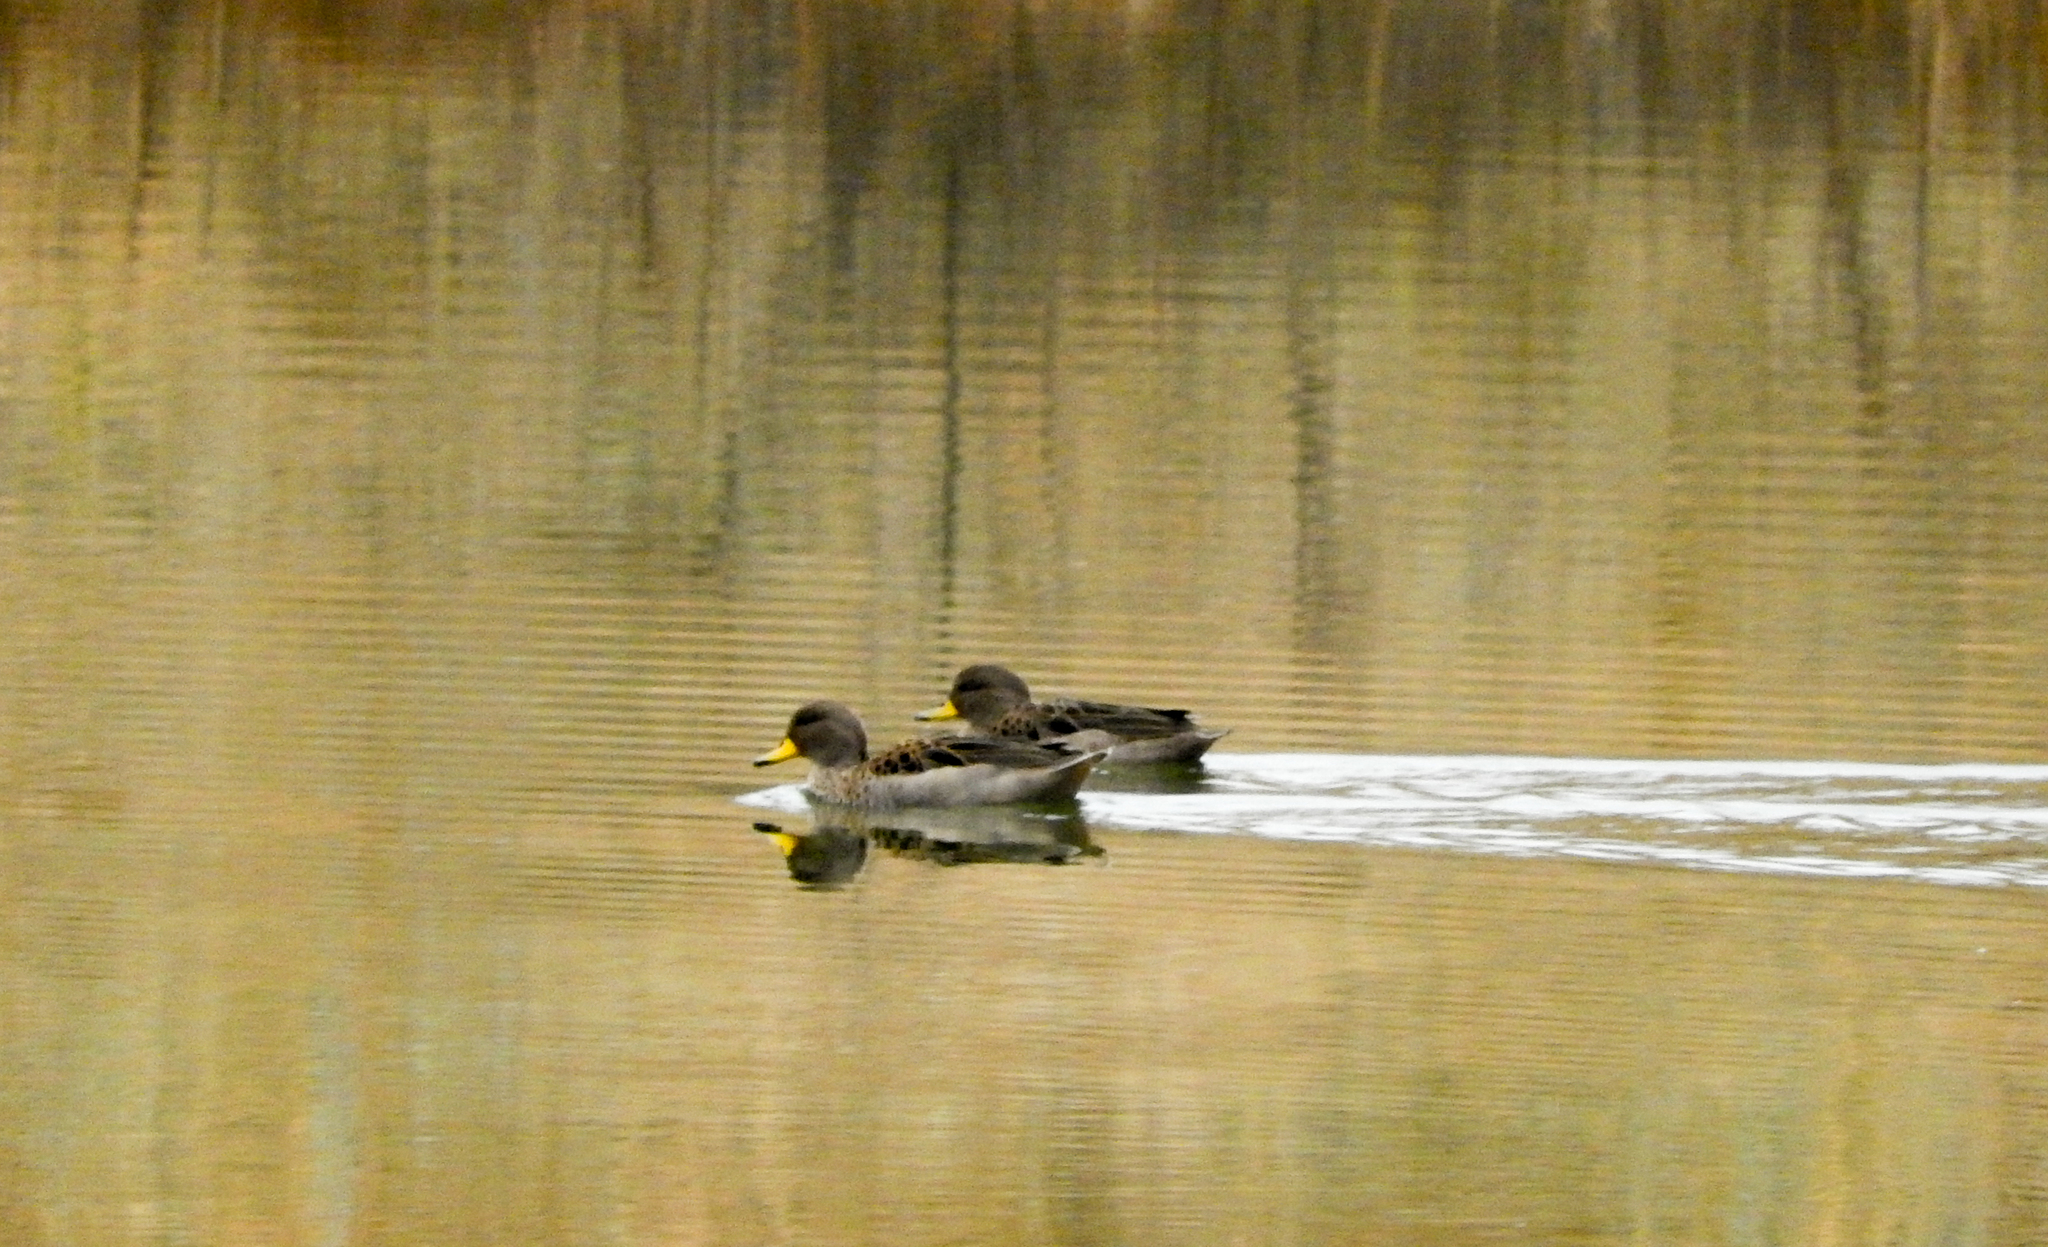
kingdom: Animalia
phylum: Chordata
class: Aves
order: Anseriformes
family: Anatidae
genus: Anas
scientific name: Anas flavirostris
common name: Yellow-billed teal
